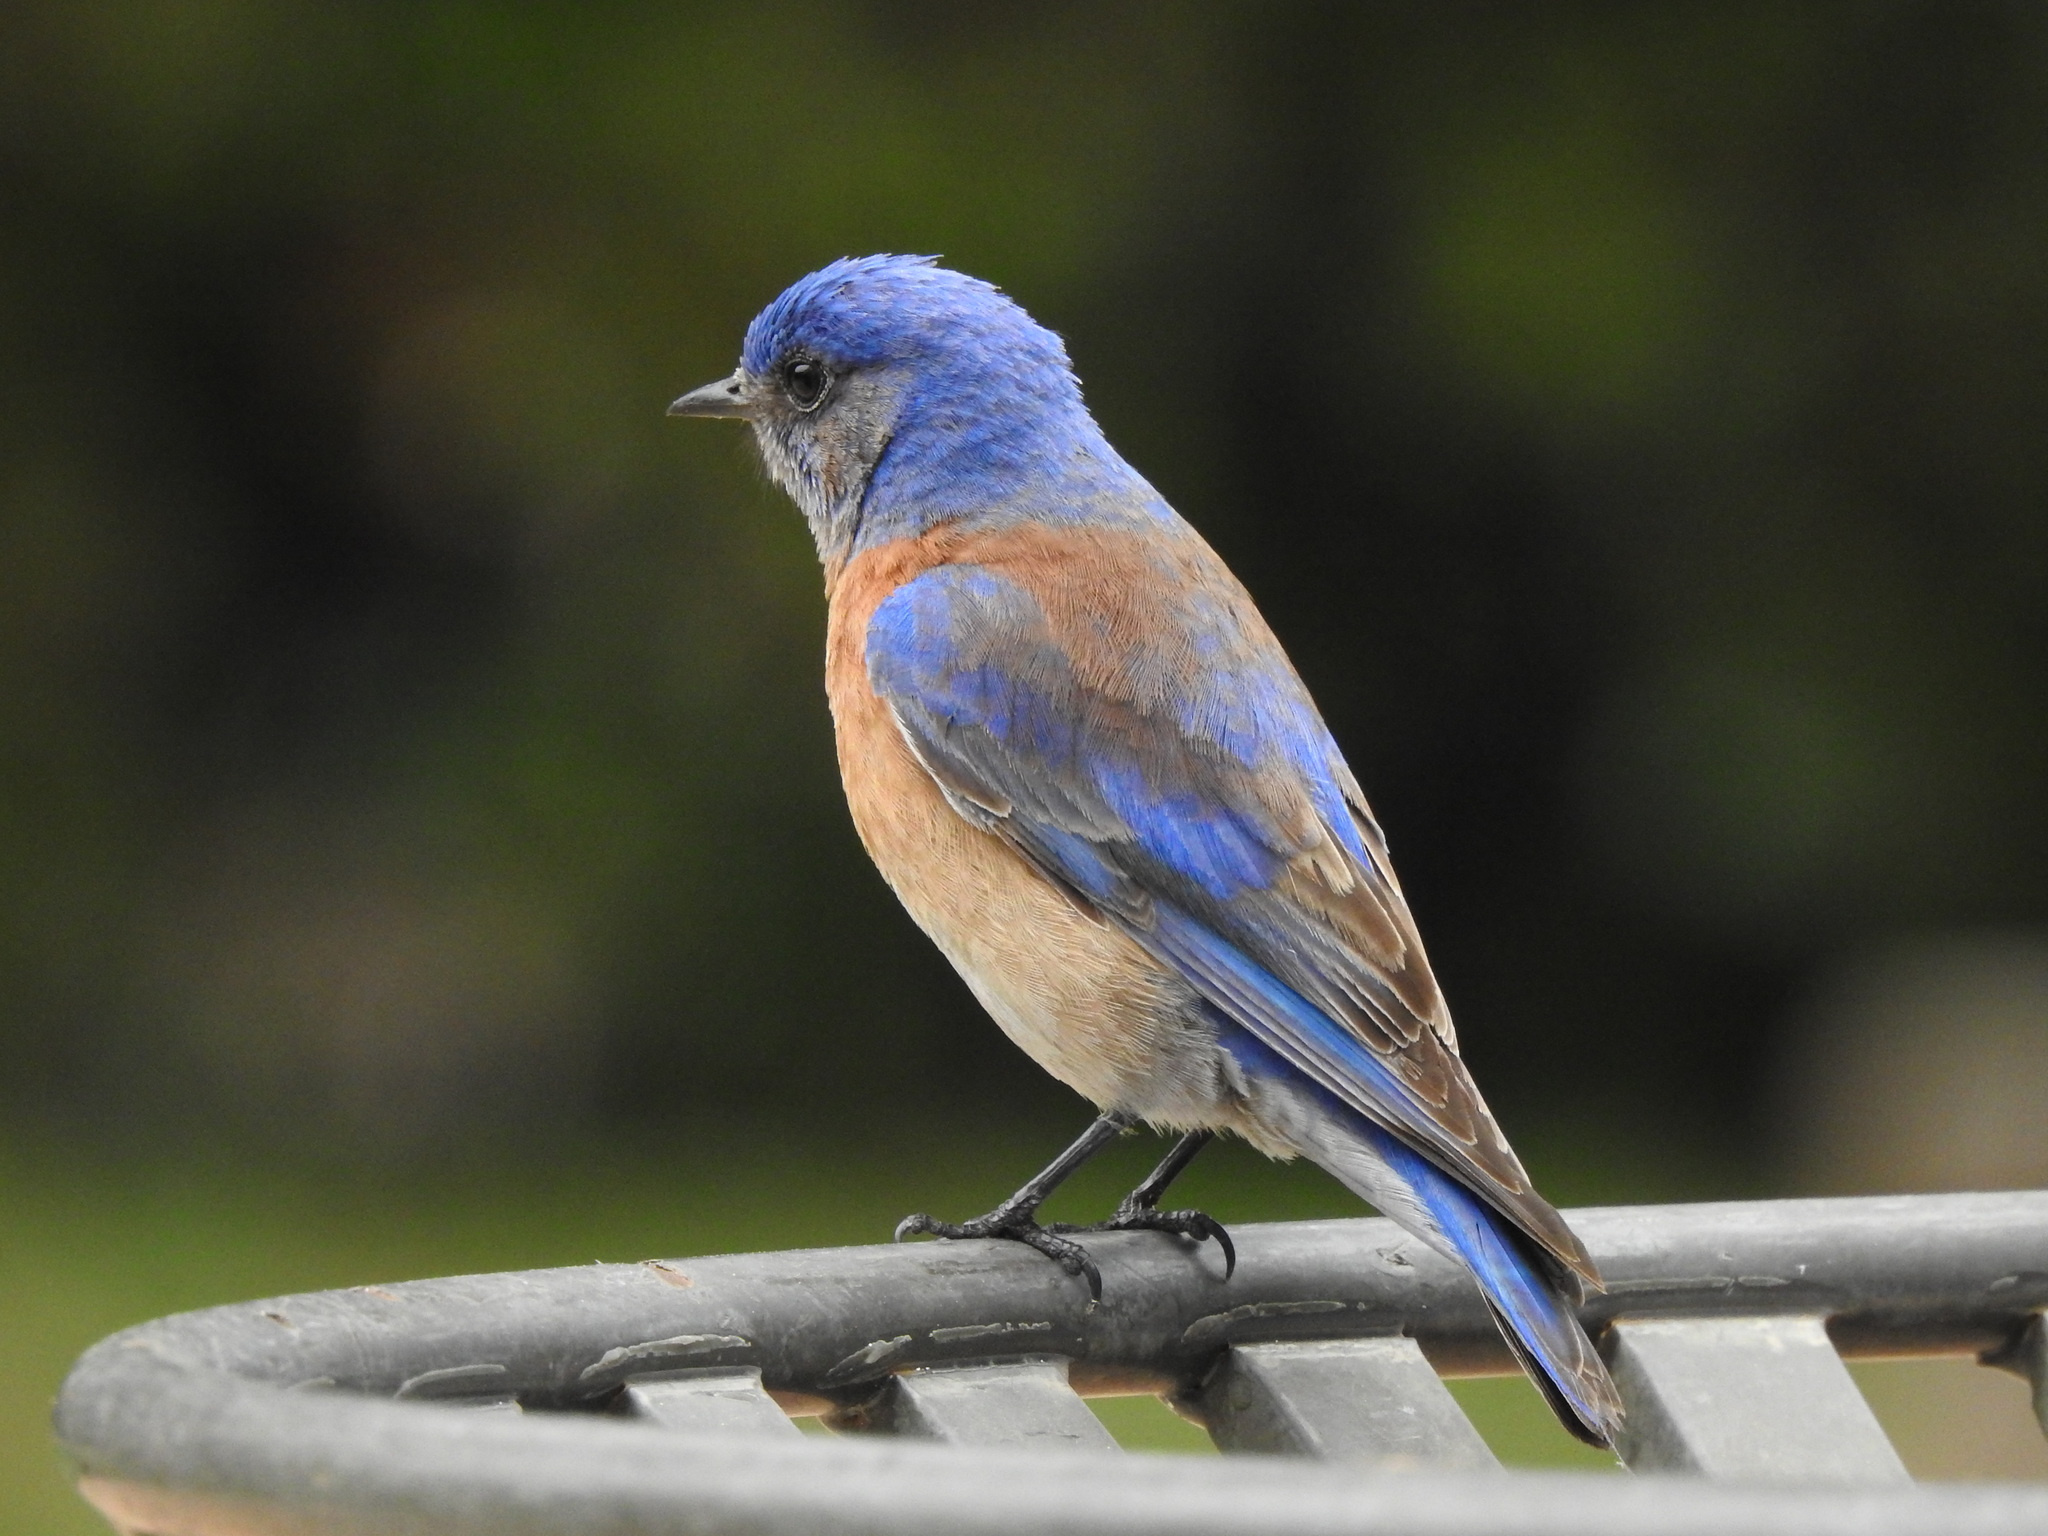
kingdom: Animalia
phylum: Chordata
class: Aves
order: Passeriformes
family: Turdidae
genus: Sialia
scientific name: Sialia mexicana
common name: Western bluebird
